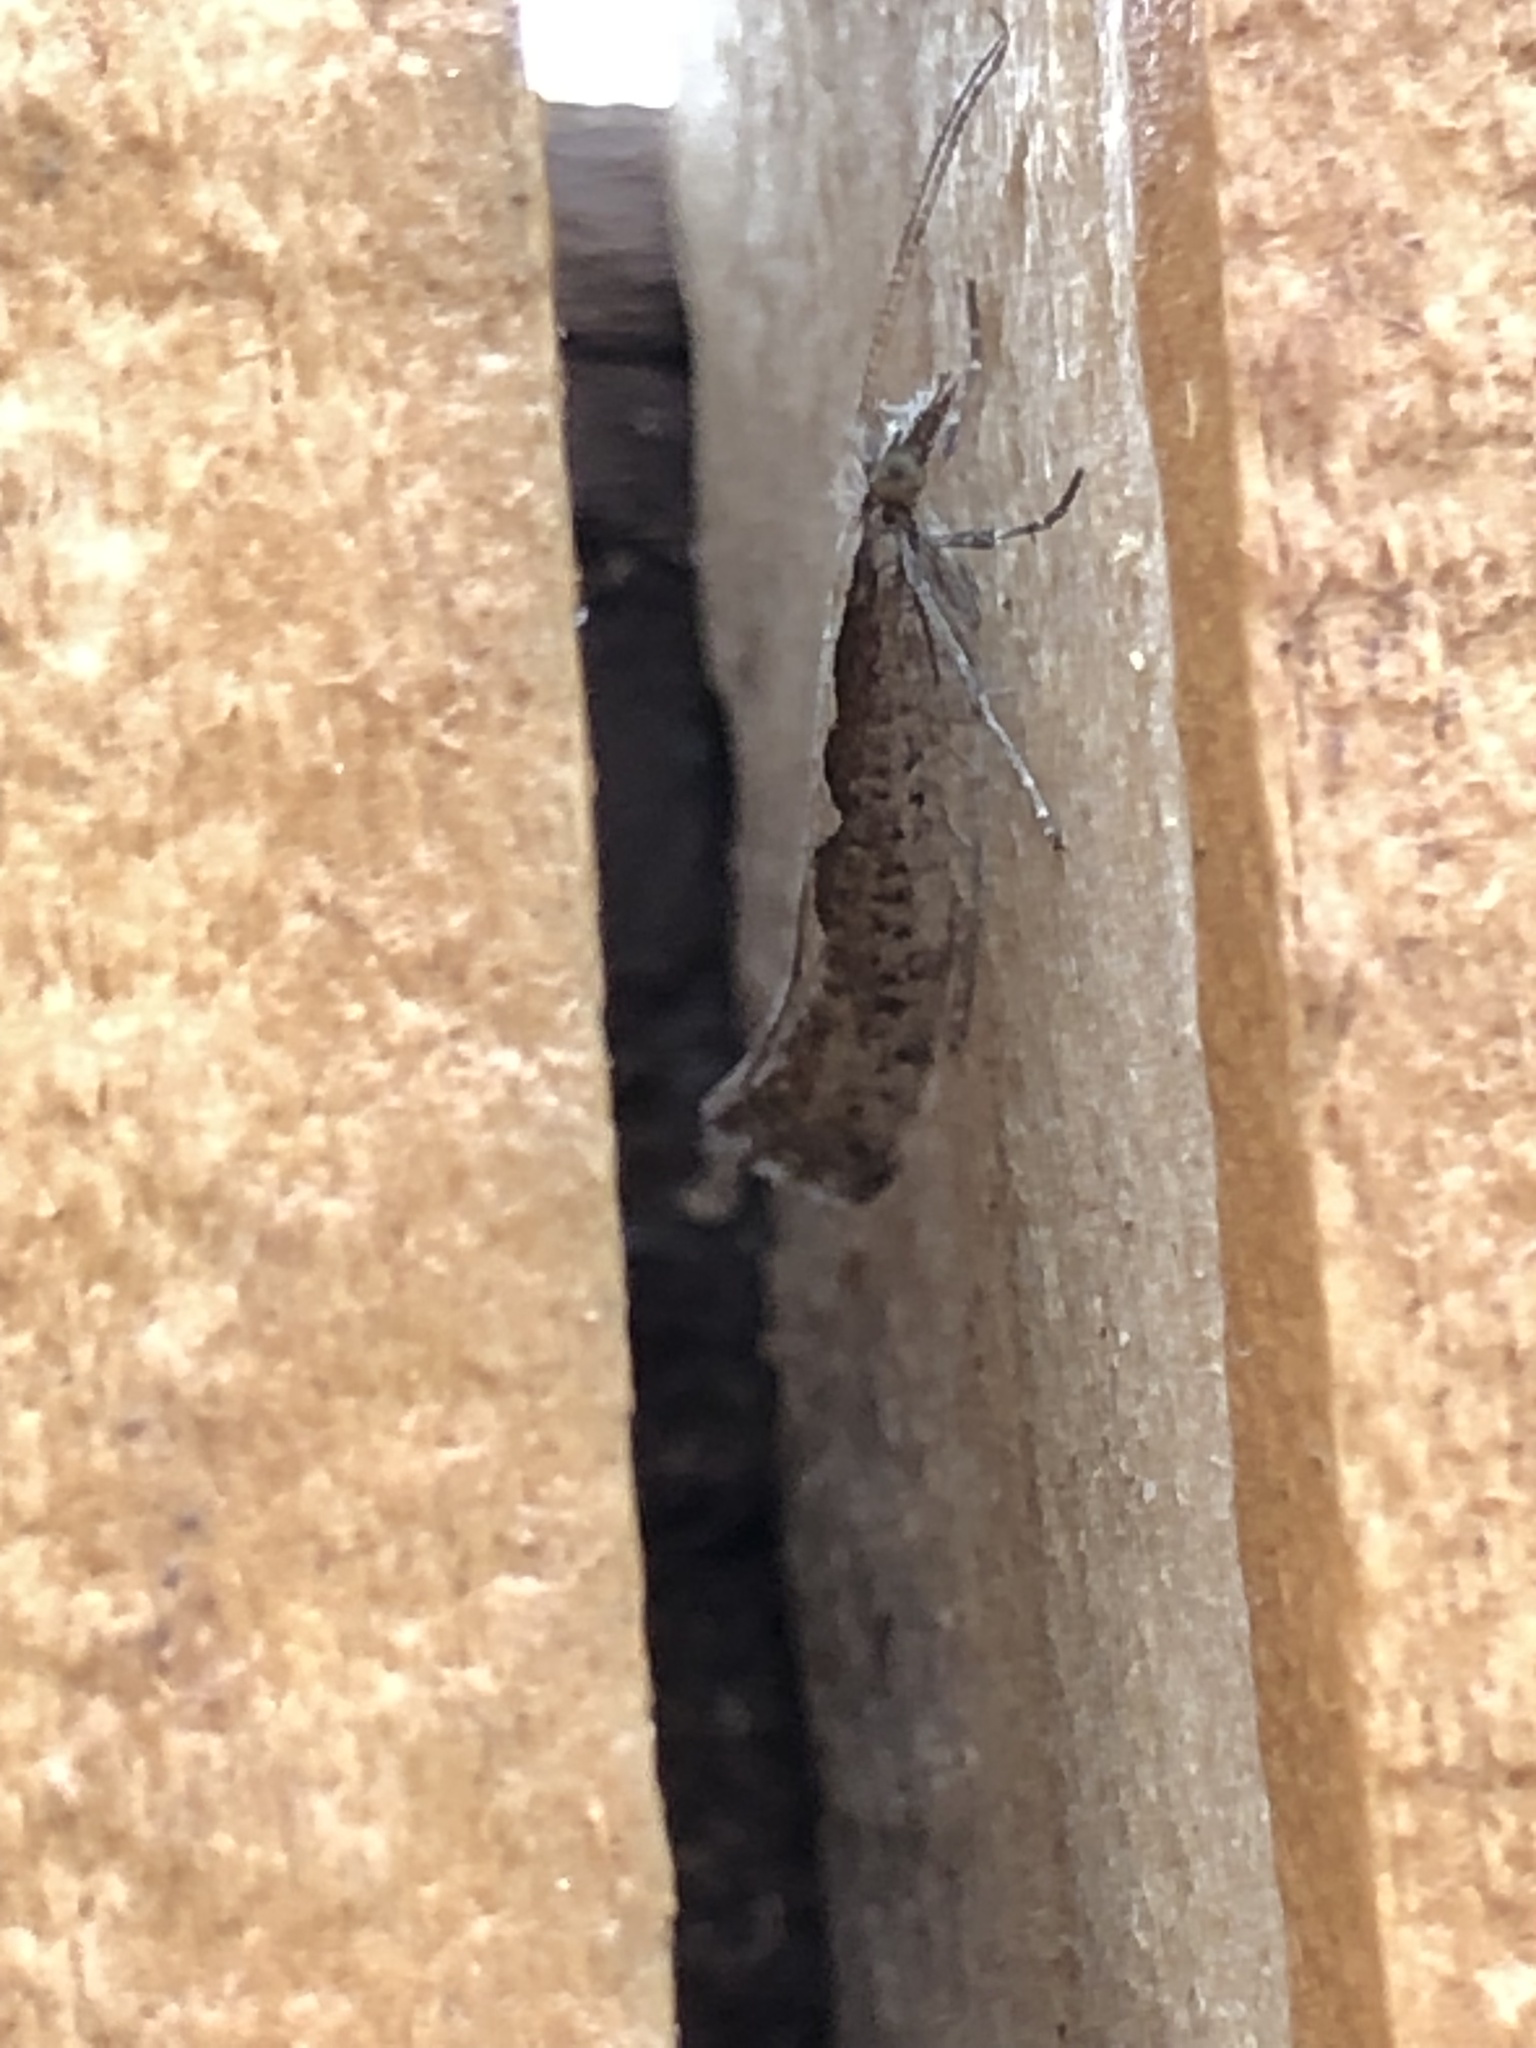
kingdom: Animalia
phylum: Arthropoda
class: Insecta
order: Lepidoptera
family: Plutellidae
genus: Plutella
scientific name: Plutella xylostella
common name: Diamond-back moth
